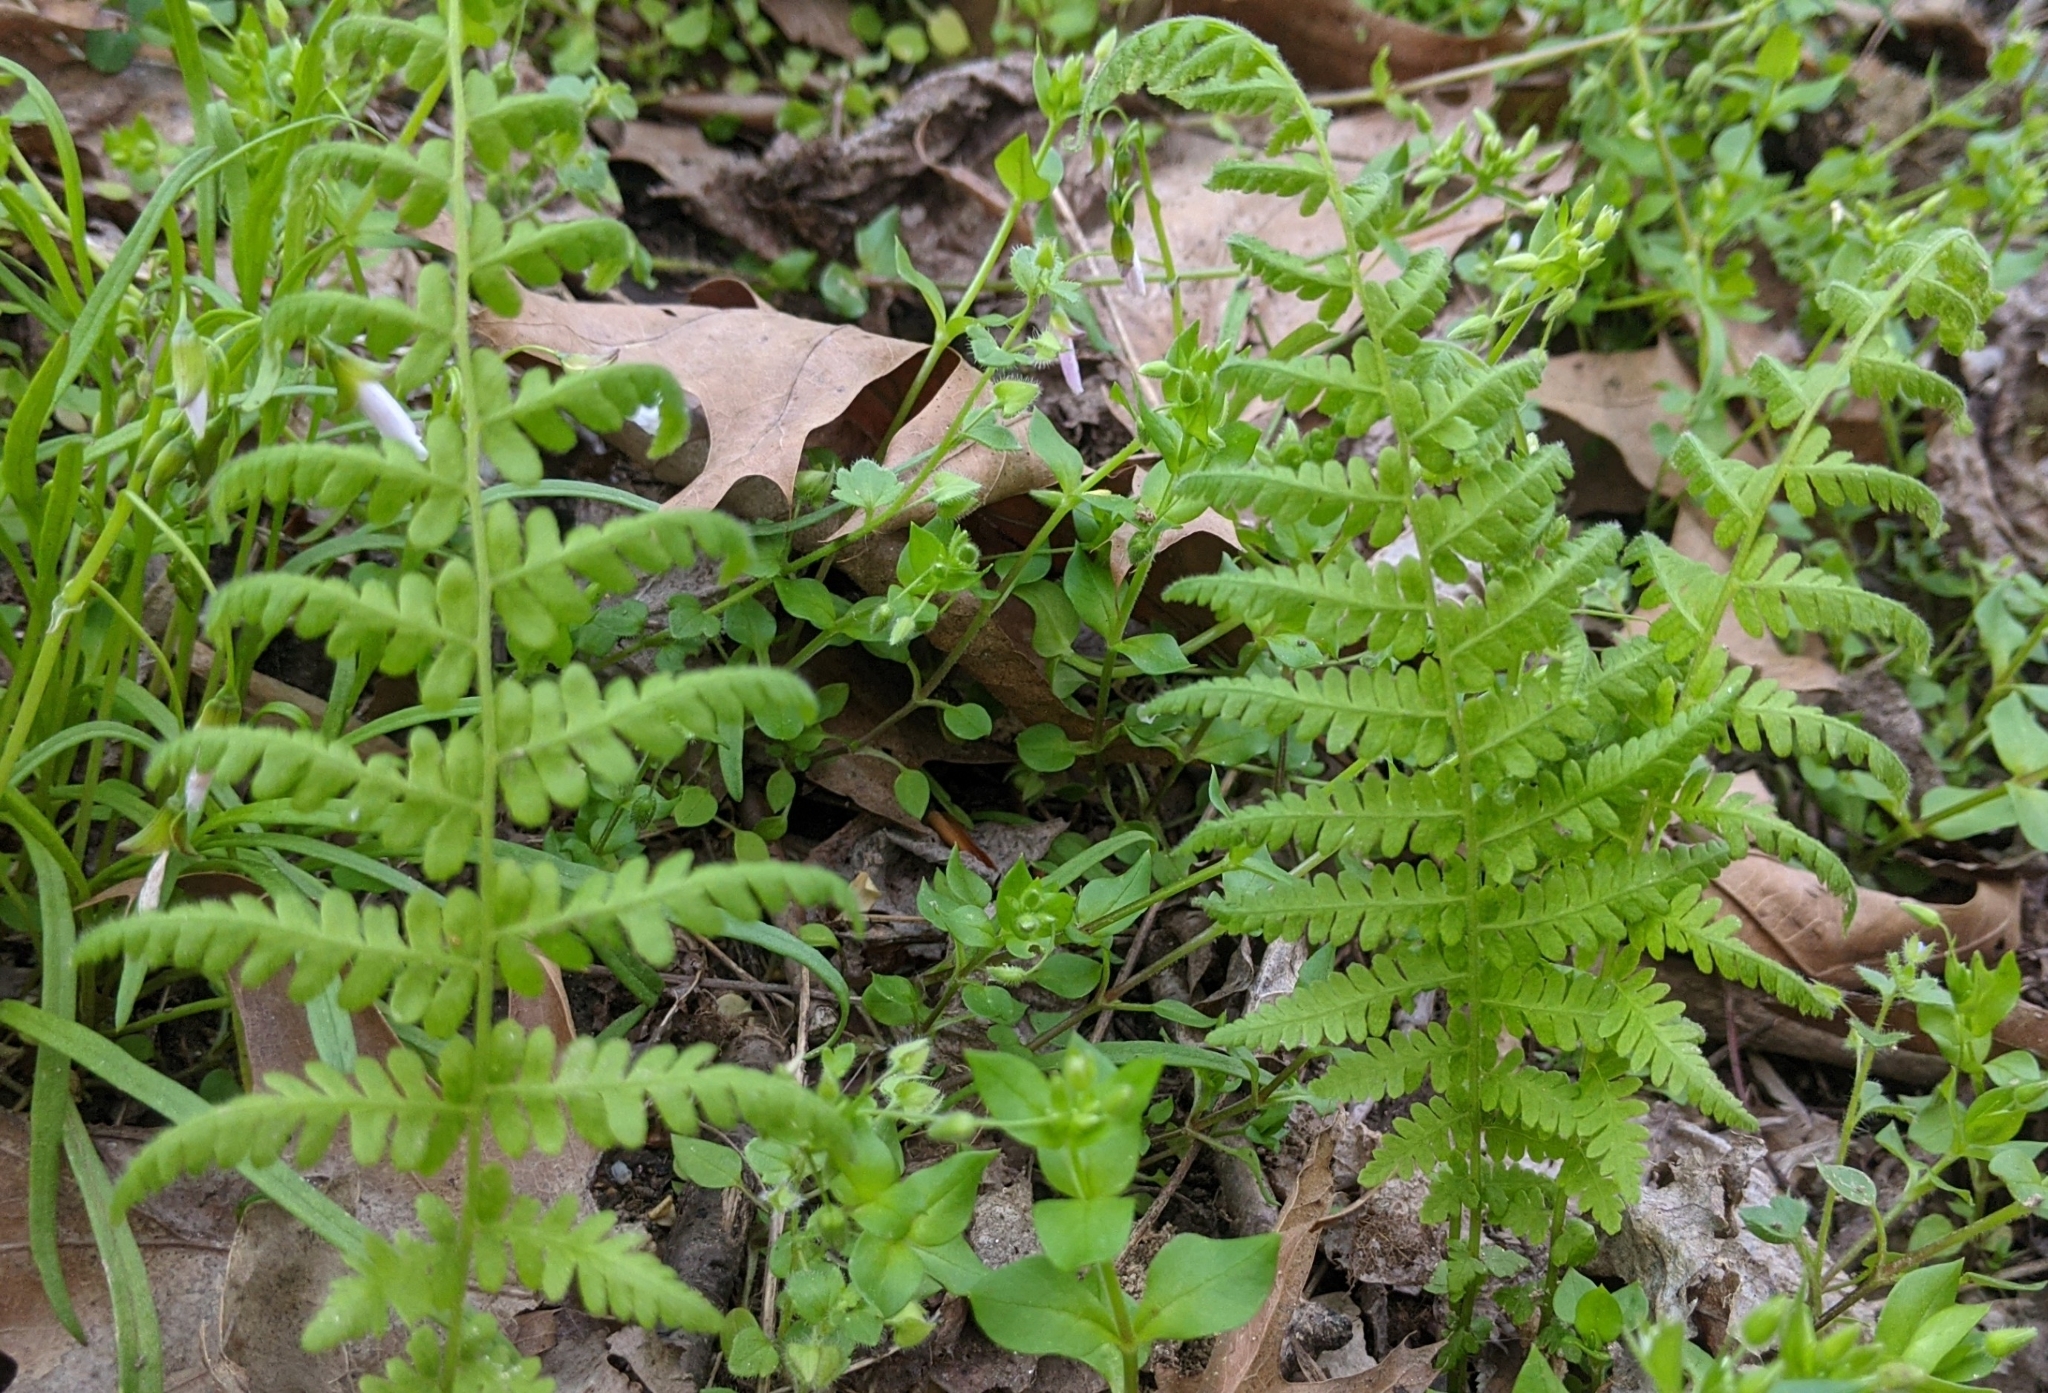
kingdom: Plantae
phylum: Tracheophyta
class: Polypodiopsida
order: Polypodiales
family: Thelypteridaceae
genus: Amauropelta
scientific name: Amauropelta noveboracensis
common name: New york fern
